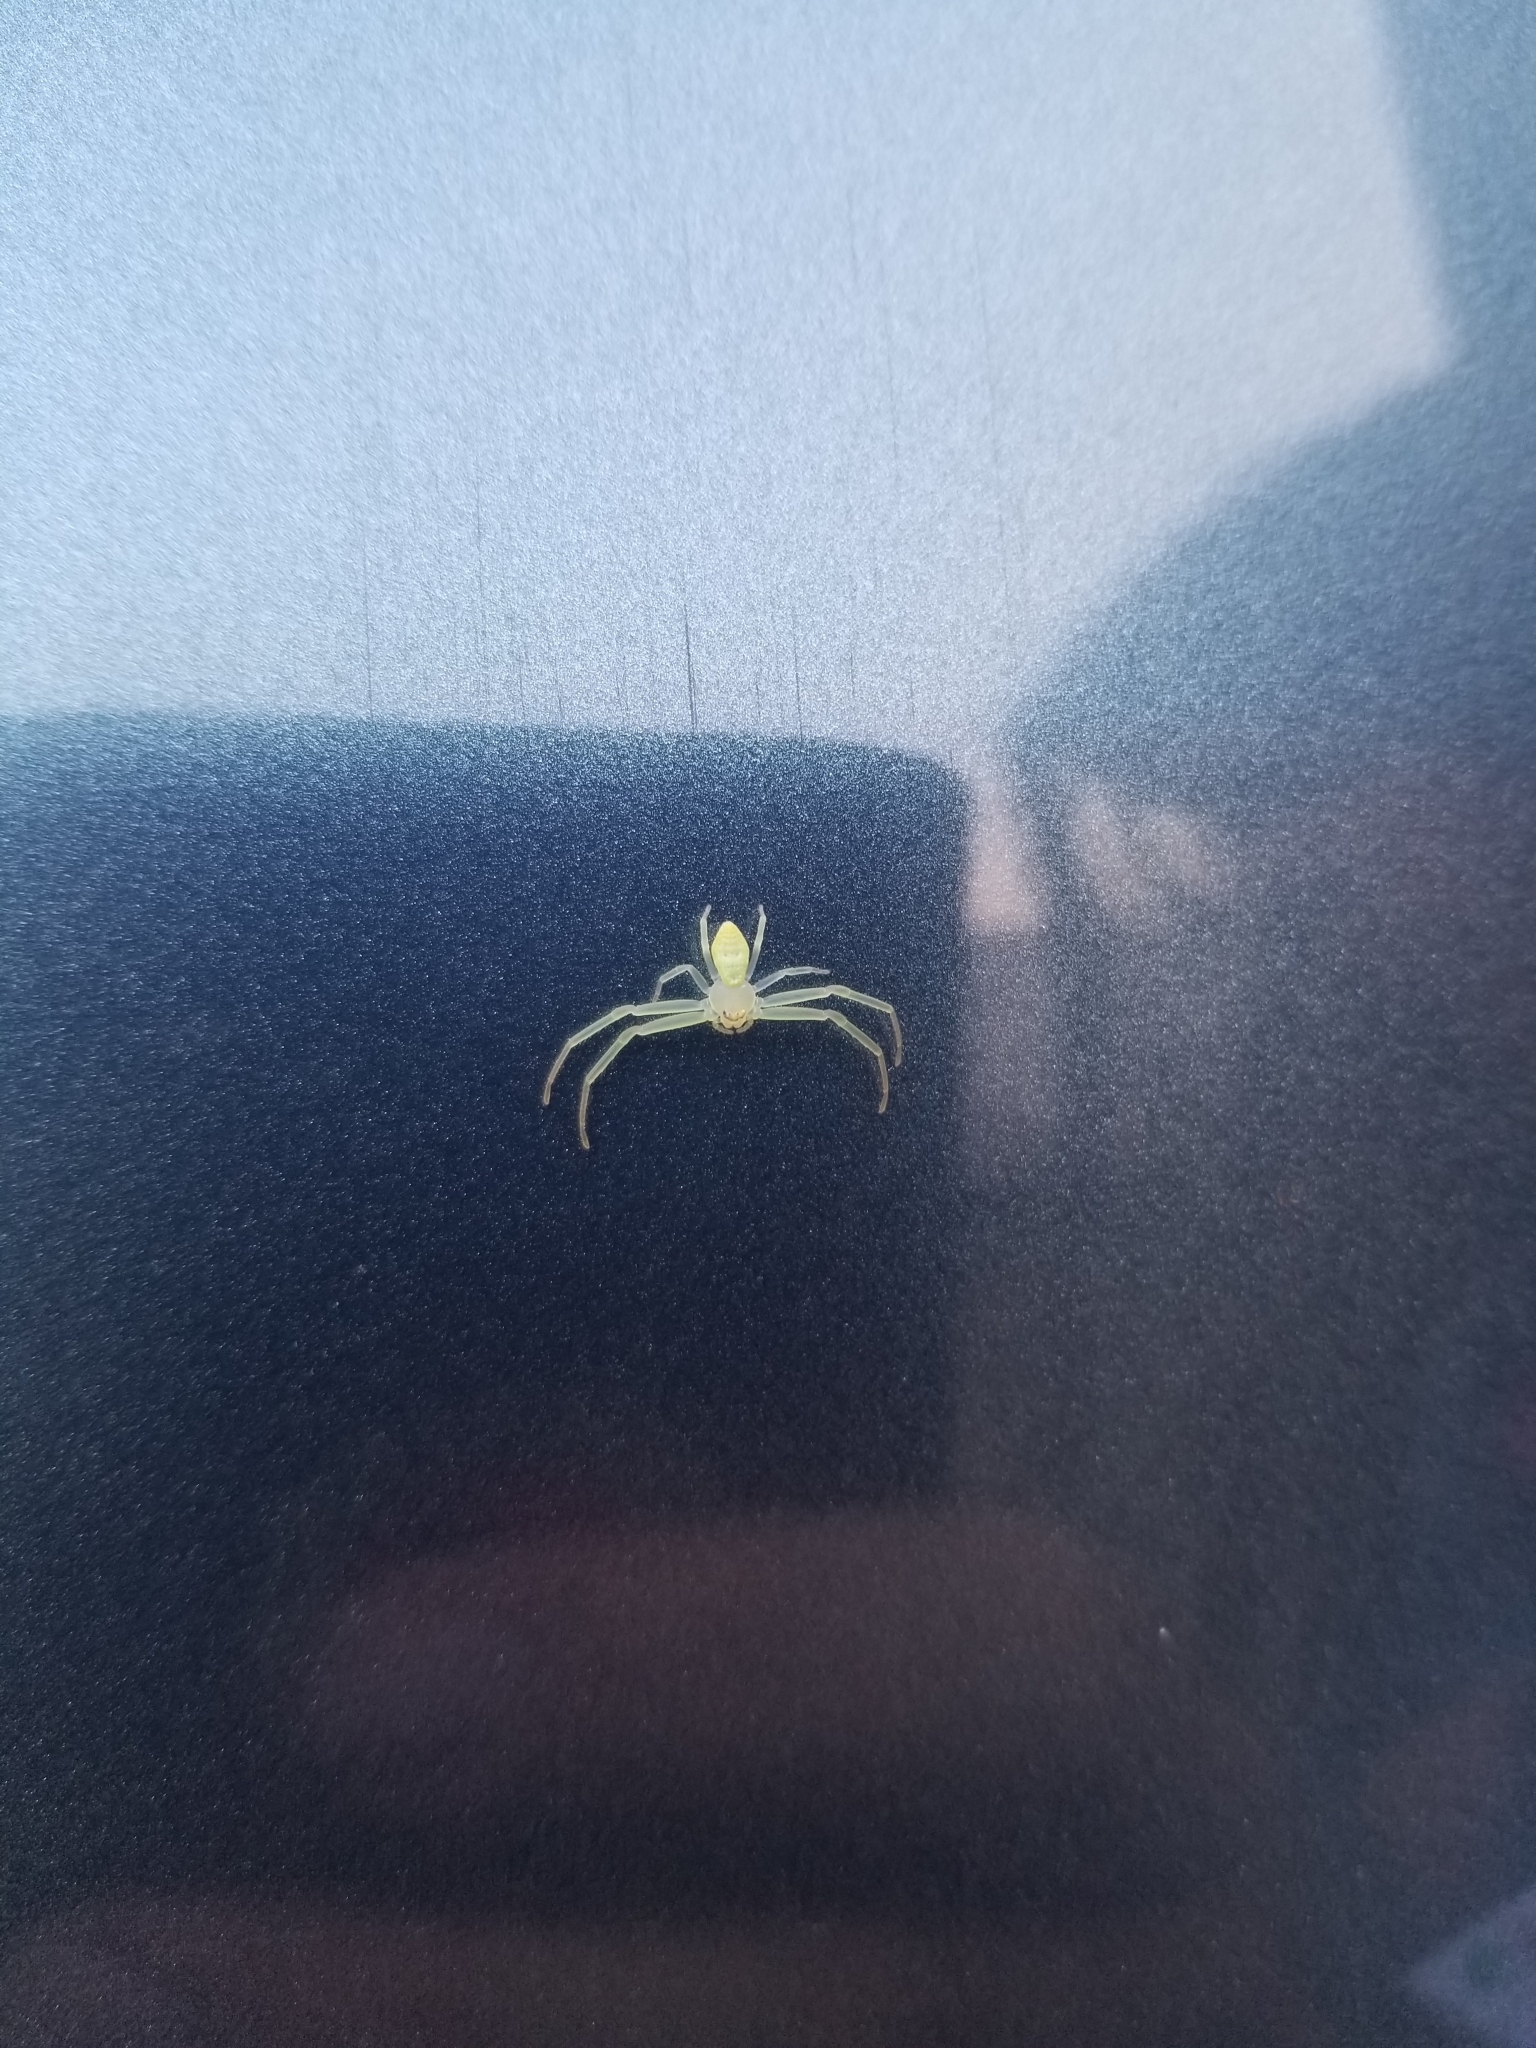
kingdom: Animalia
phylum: Arthropoda
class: Arachnida
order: Araneae
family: Thomisidae
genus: Misumessus
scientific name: Misumessus oblongus
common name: American green crab spider
